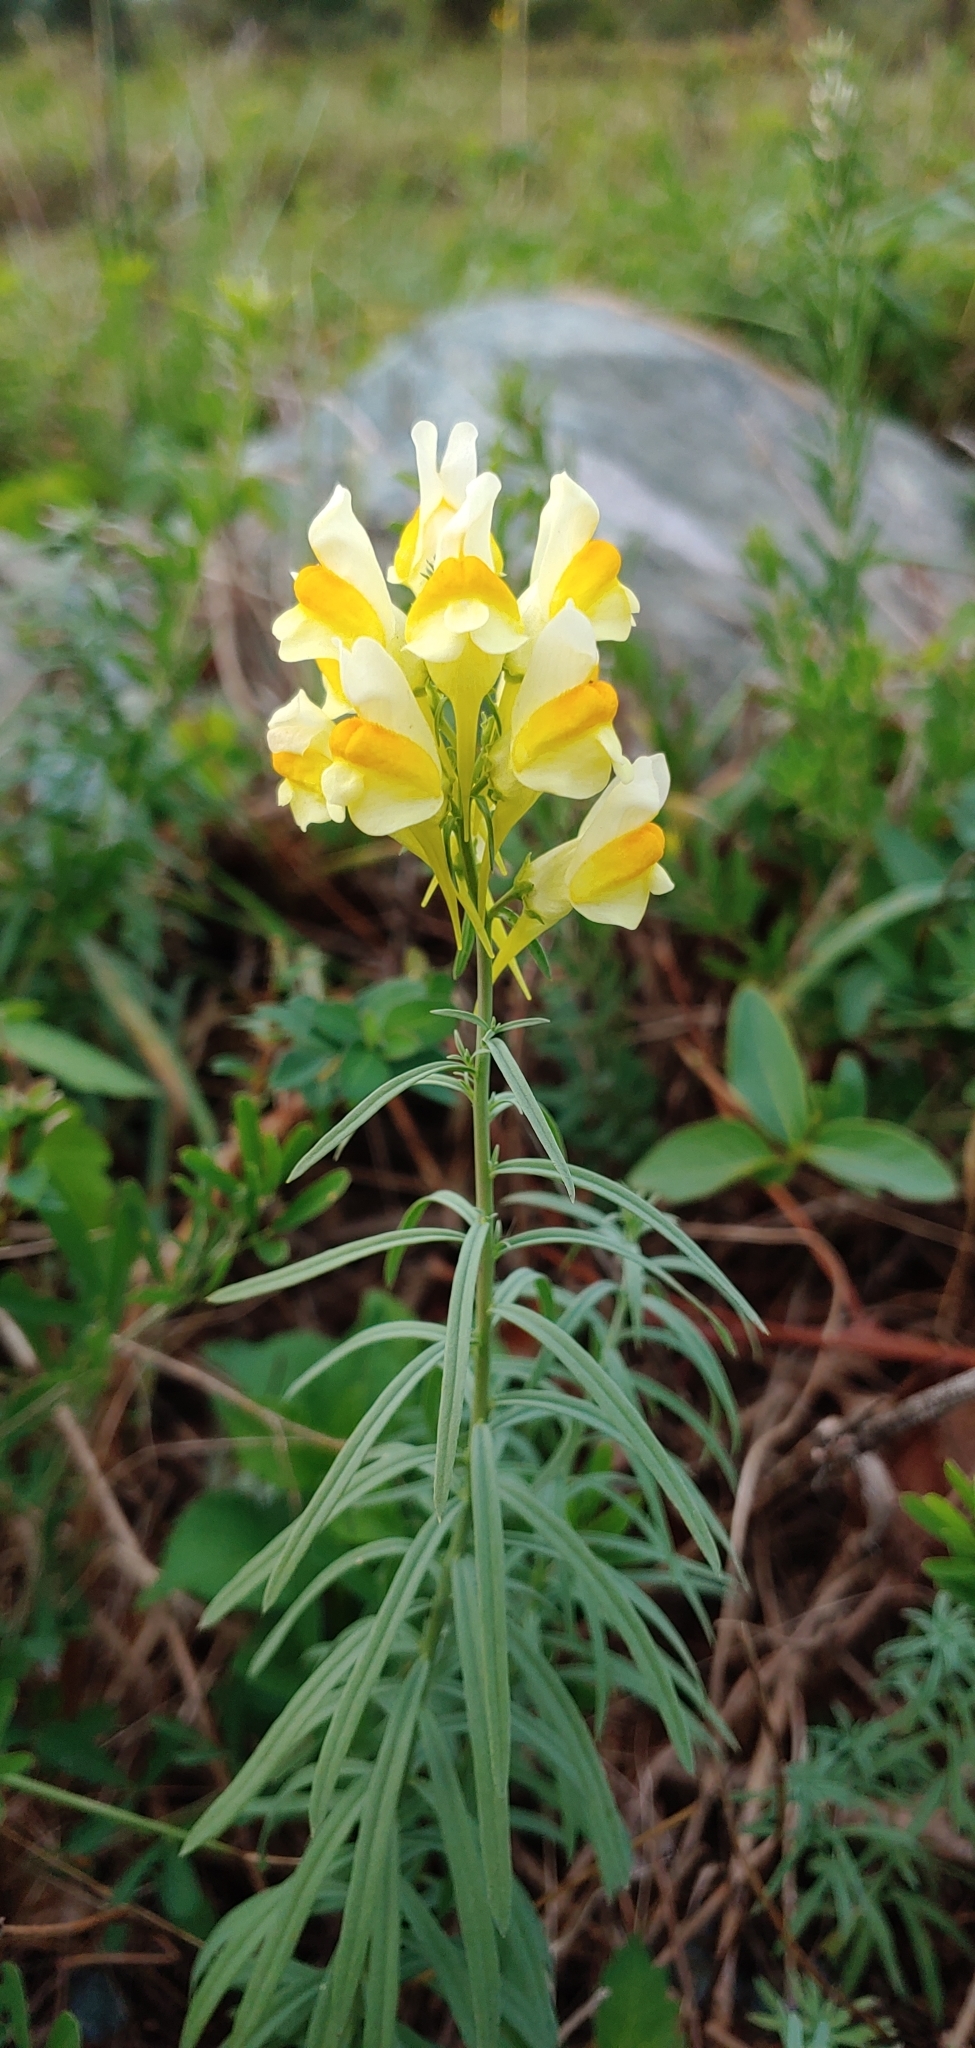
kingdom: Plantae
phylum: Tracheophyta
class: Magnoliopsida
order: Lamiales
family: Plantaginaceae
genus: Linaria
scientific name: Linaria vulgaris
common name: Butter and eggs
